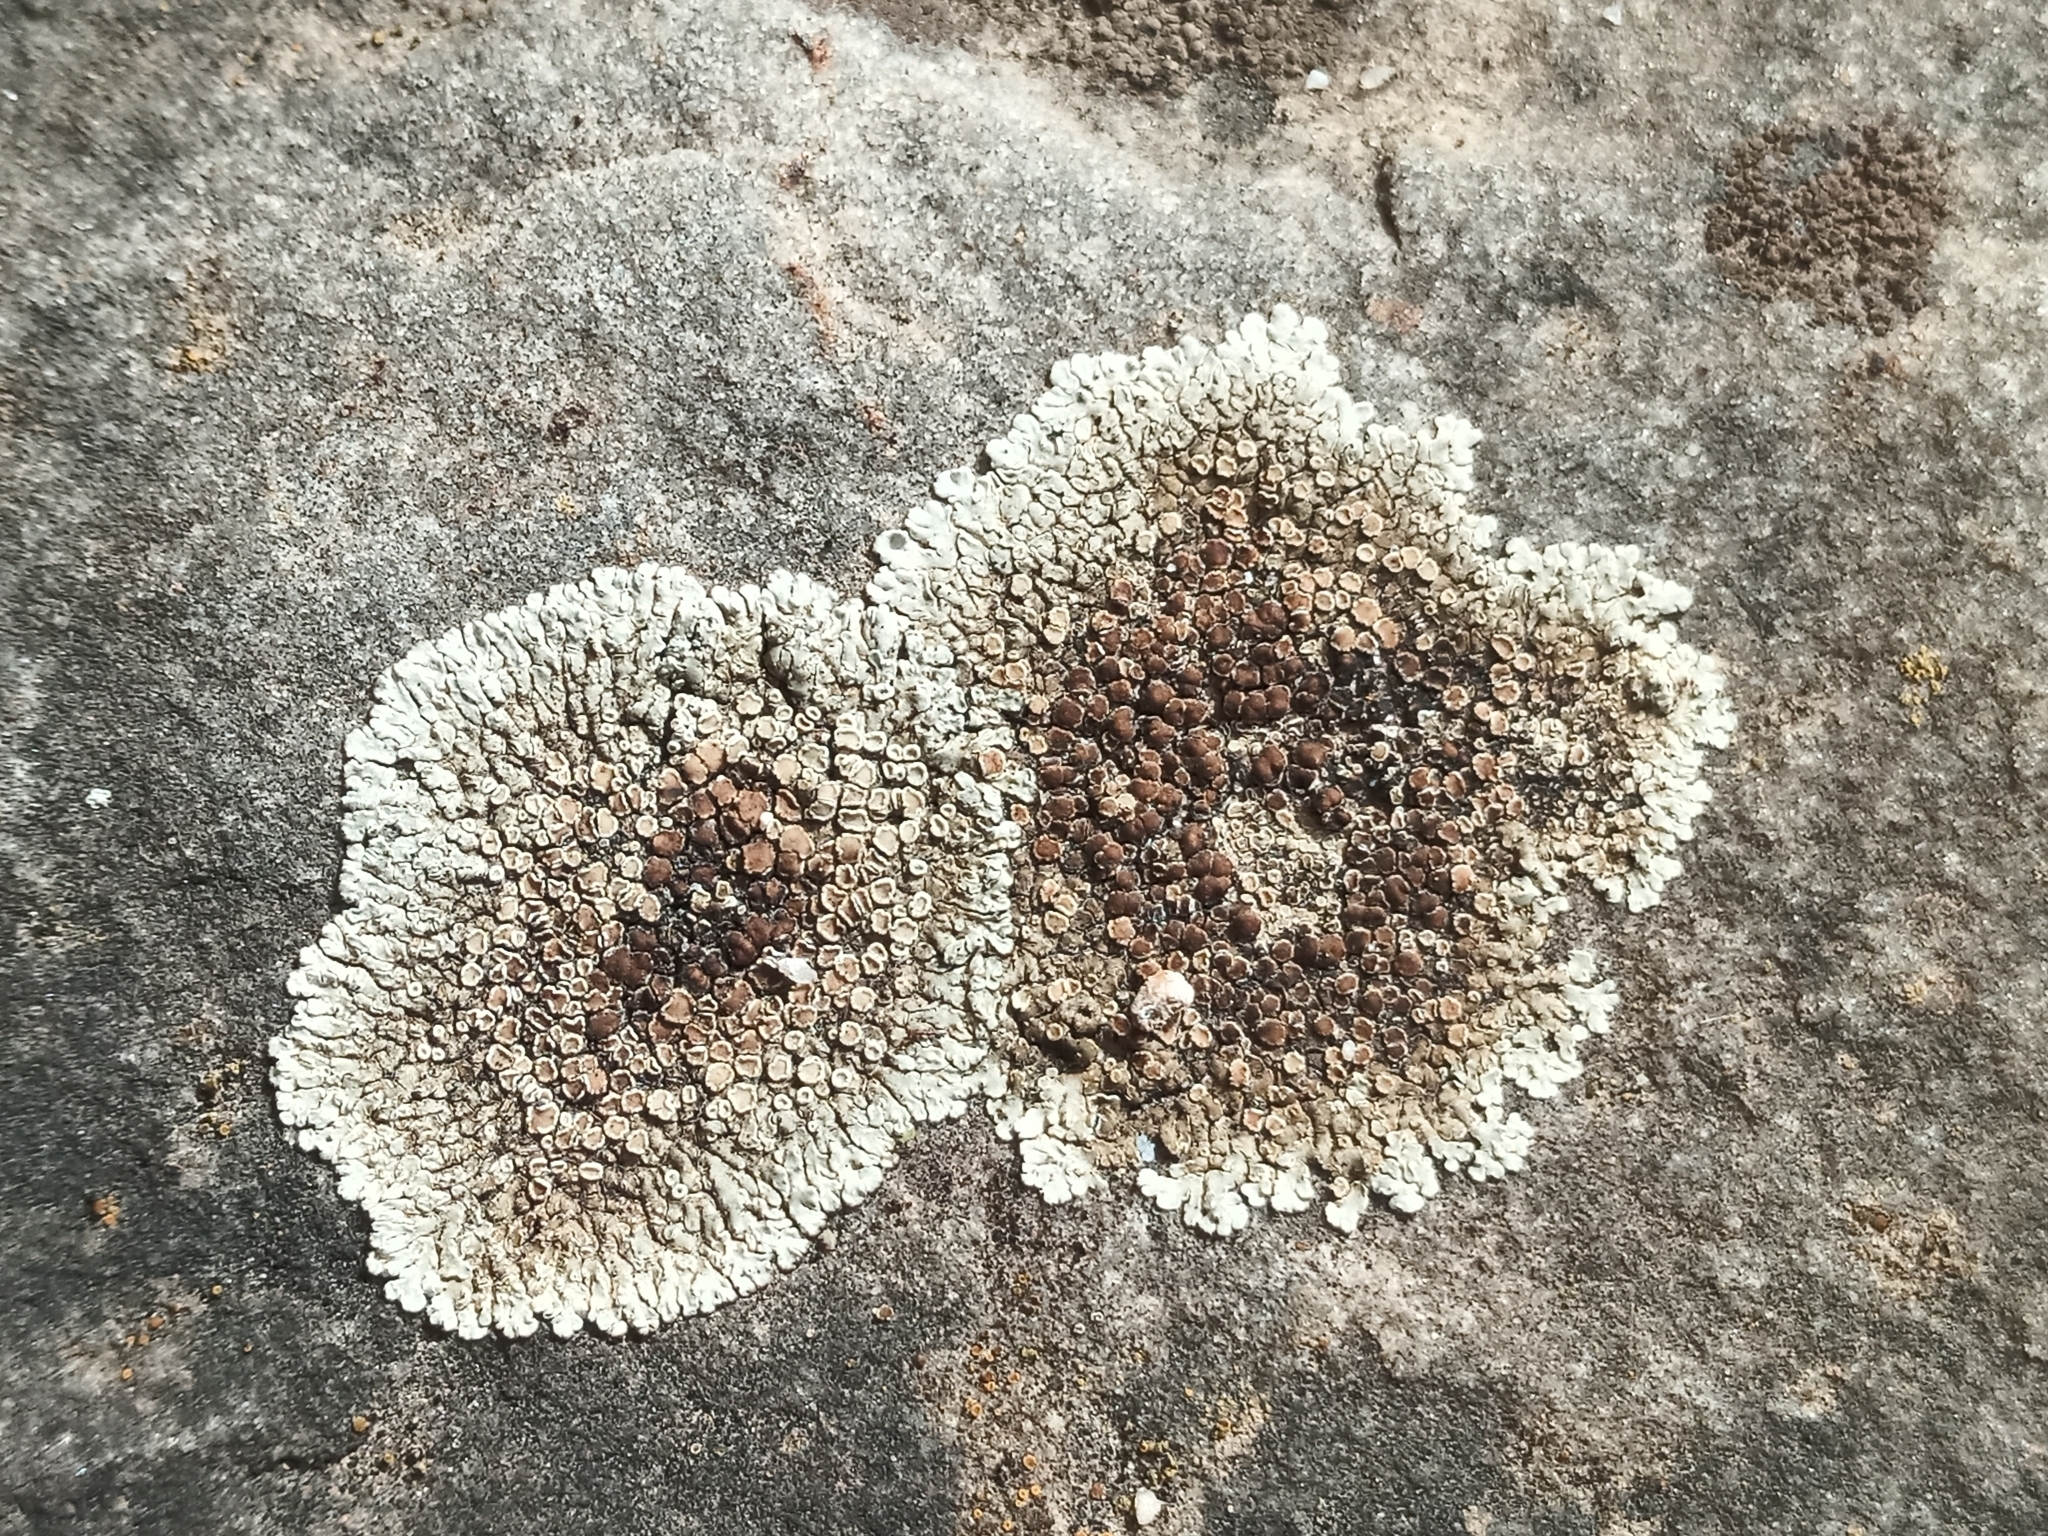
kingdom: Fungi
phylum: Ascomycota
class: Lecanoromycetes
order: Lecanorales
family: Lecanoraceae
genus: Protoparmeliopsis
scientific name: Protoparmeliopsis muralis
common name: Stonewall rim lichen
